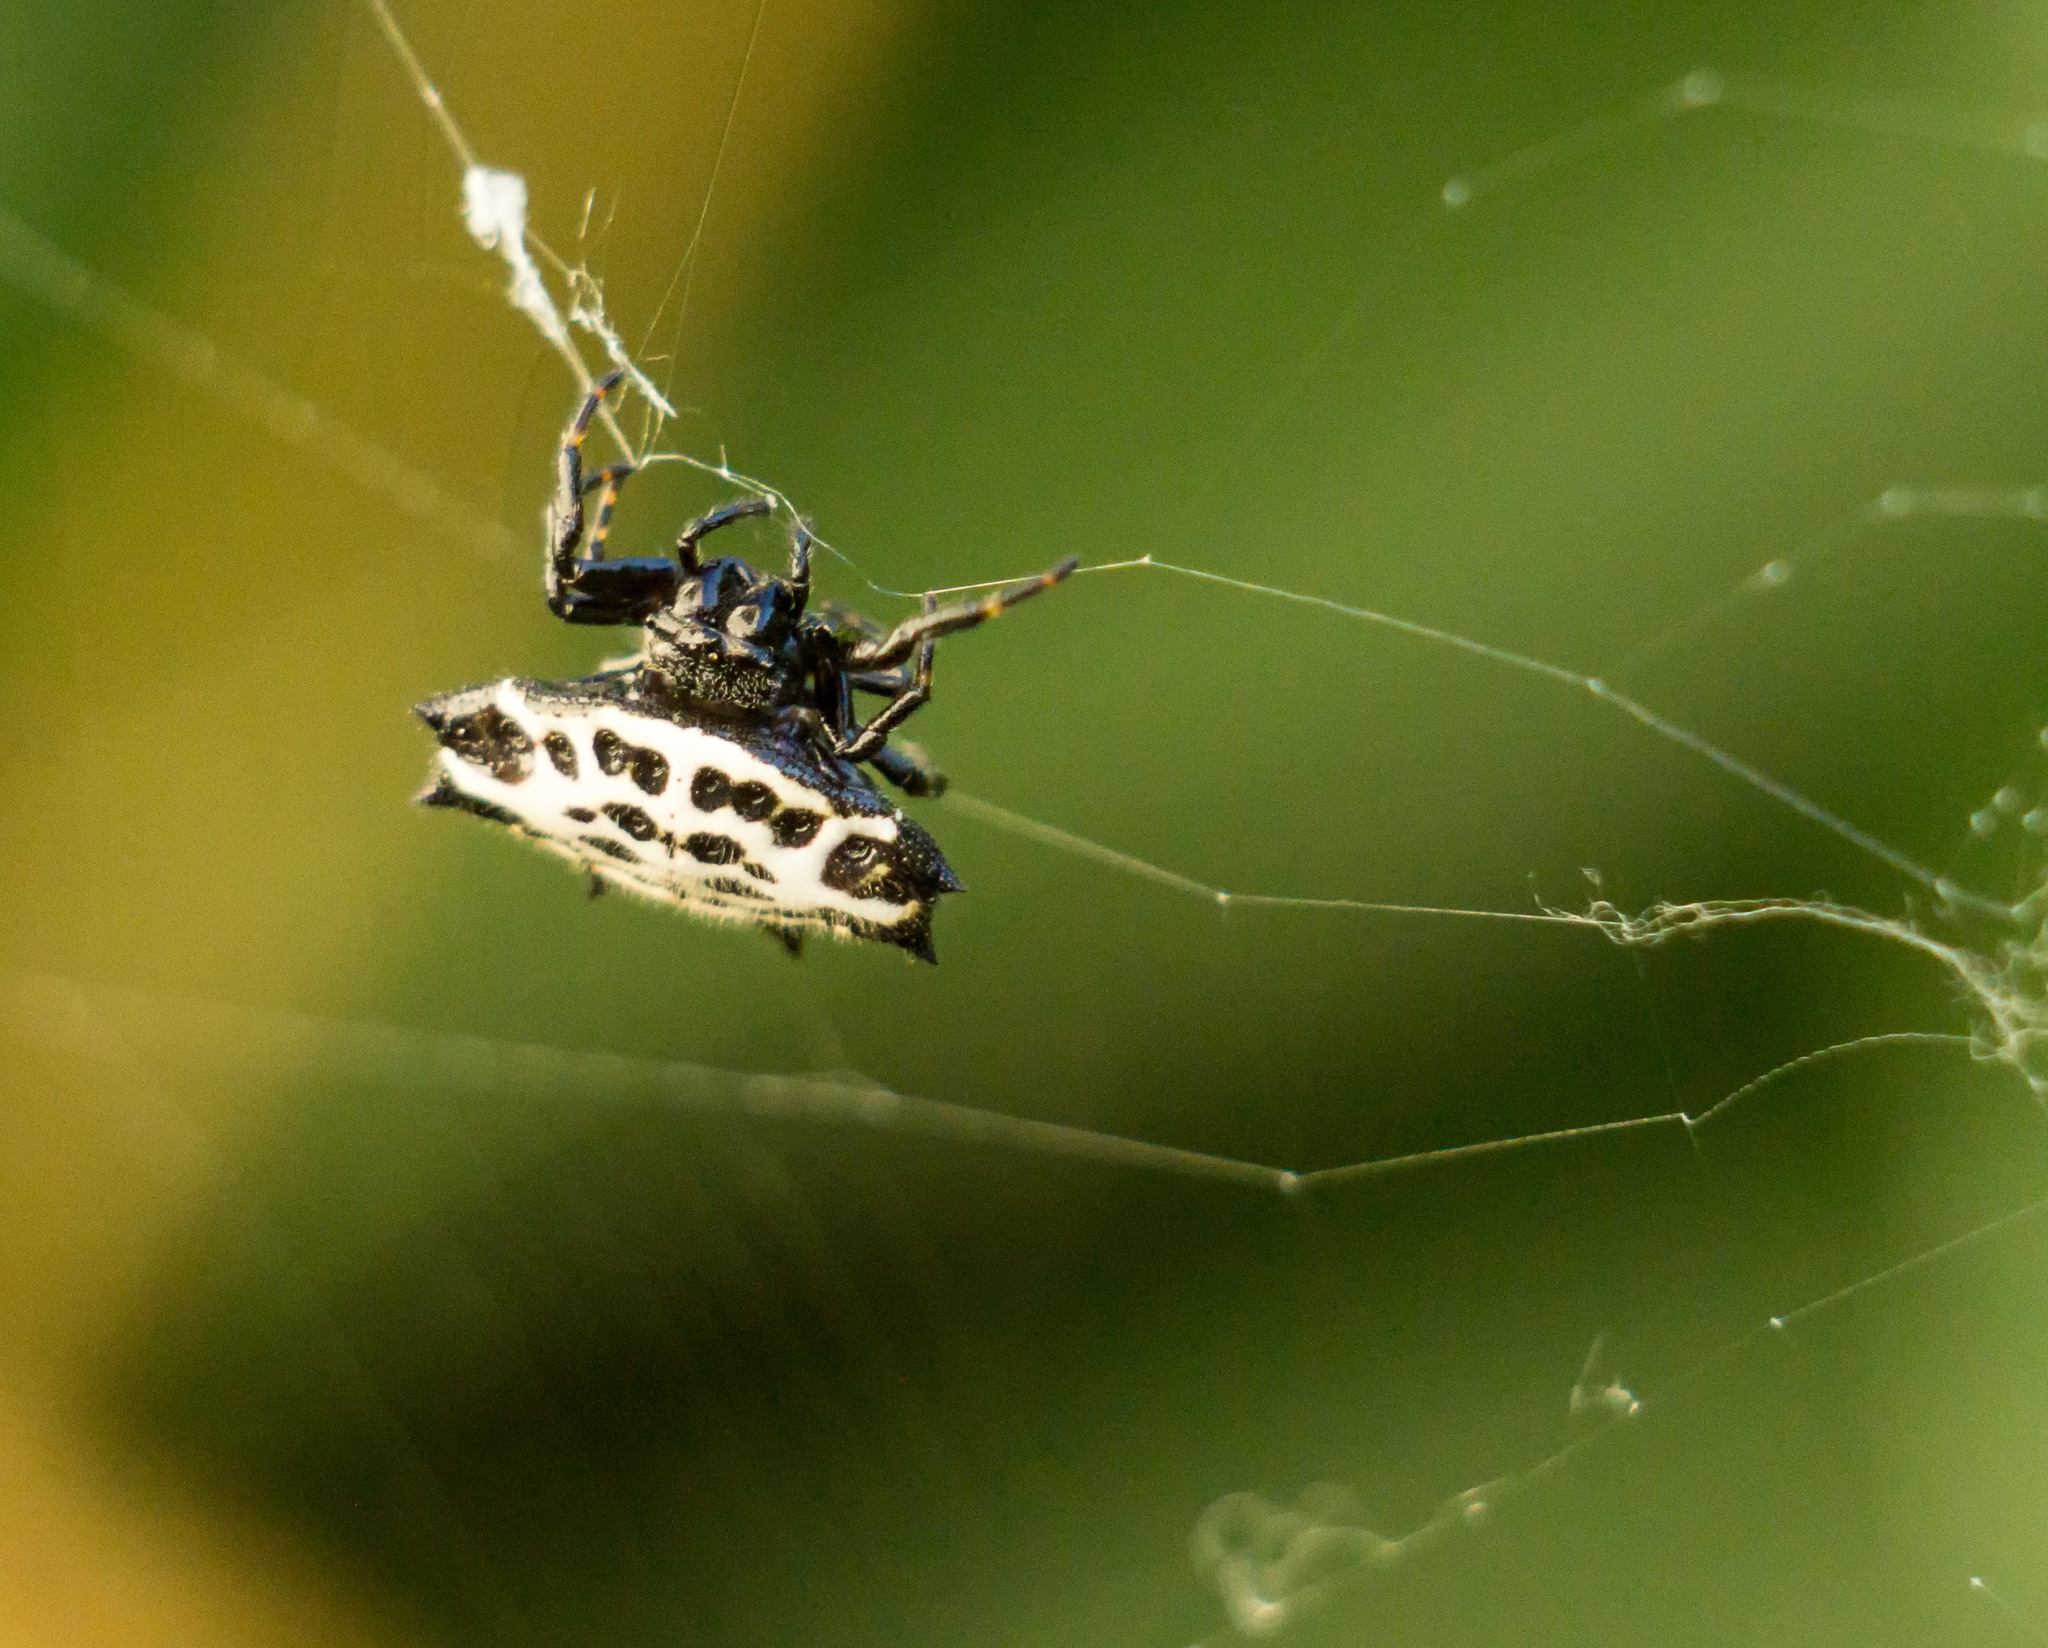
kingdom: Animalia
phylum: Arthropoda
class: Arachnida
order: Araneae
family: Araneidae
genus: Gasteracantha
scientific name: Gasteracantha cancriformis
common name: Orb weavers
